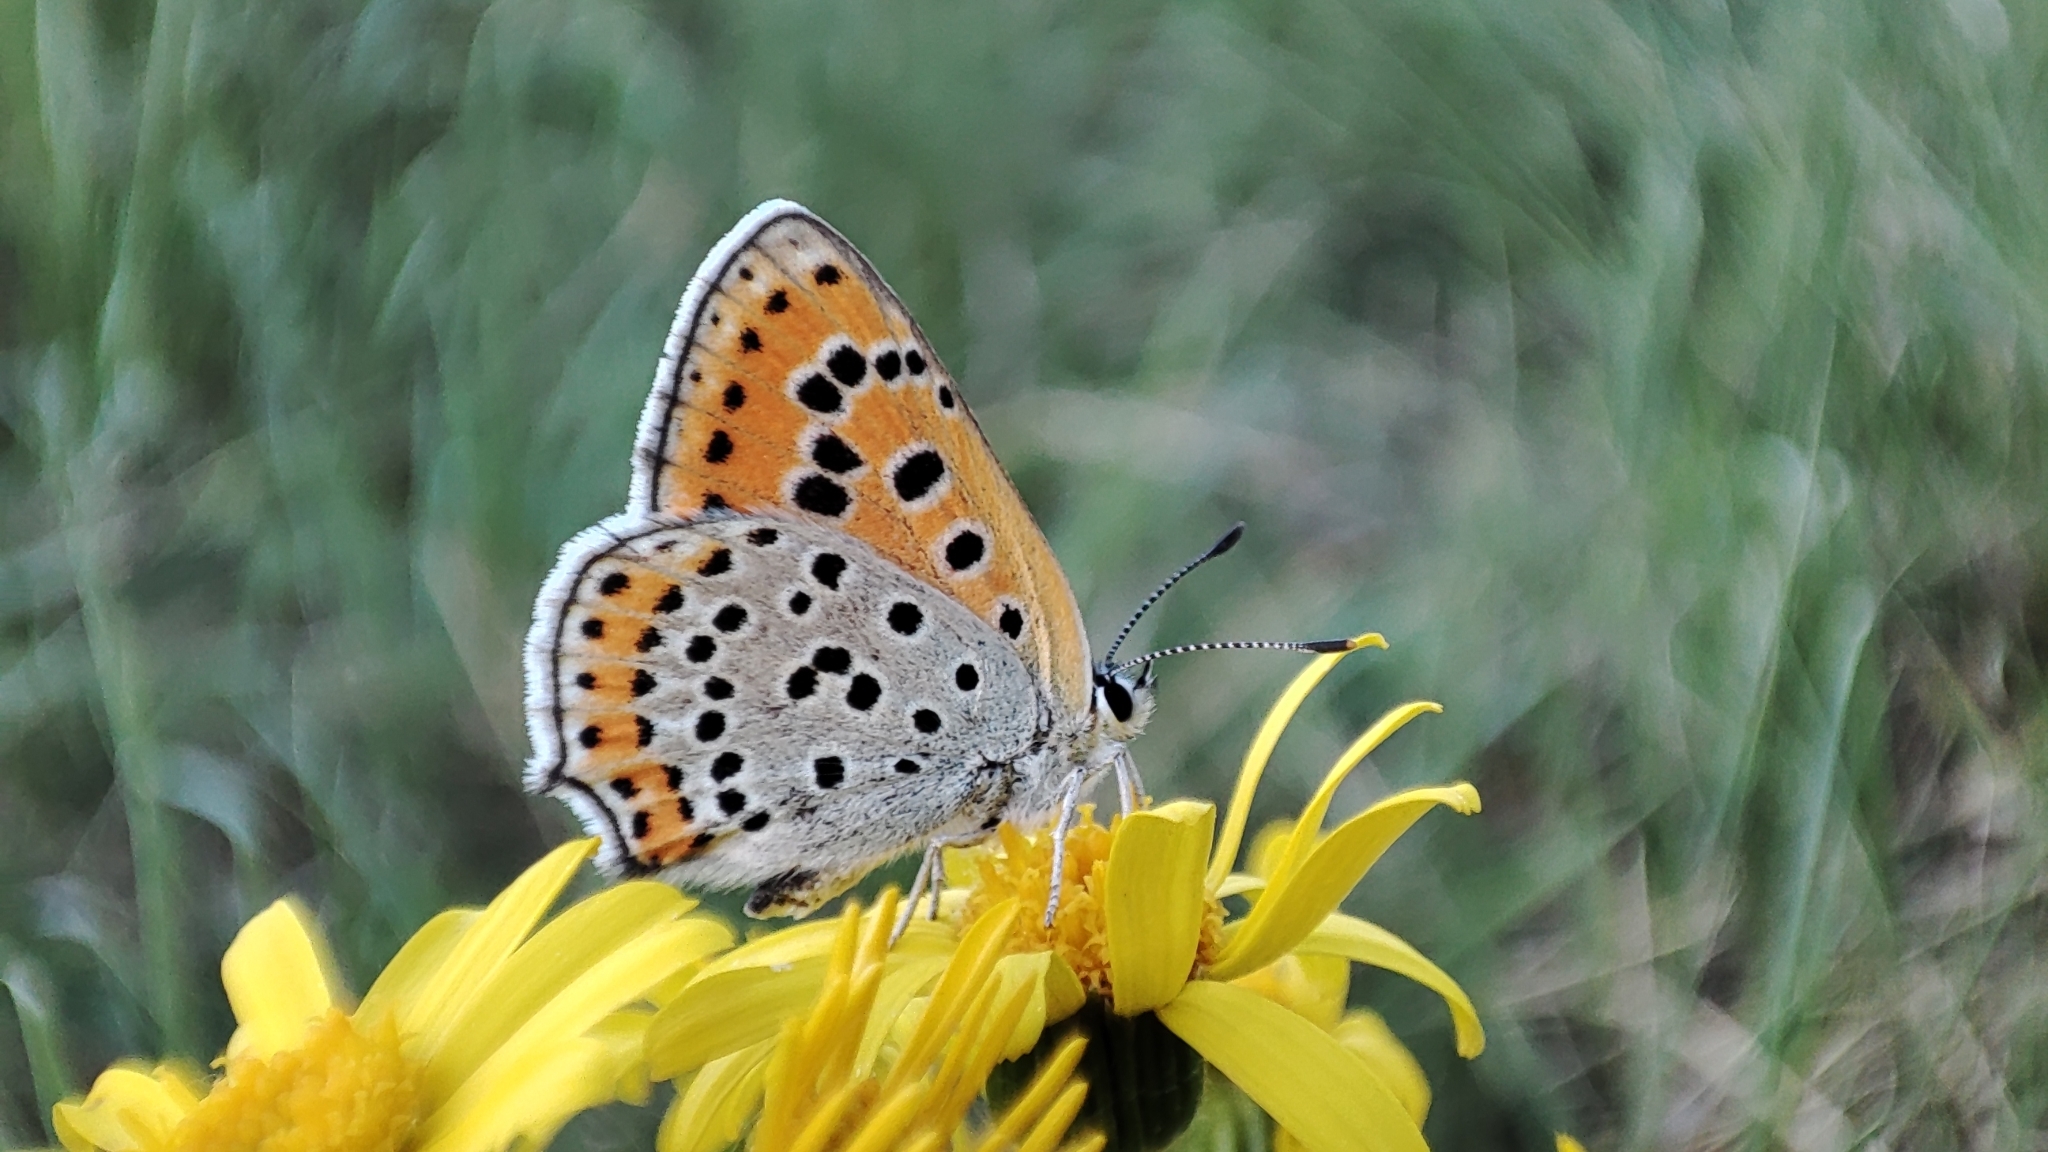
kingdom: Animalia
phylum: Arthropoda
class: Insecta
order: Lepidoptera
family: Lycaenidae
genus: Thersamonia
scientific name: Thersamonia thersamon
